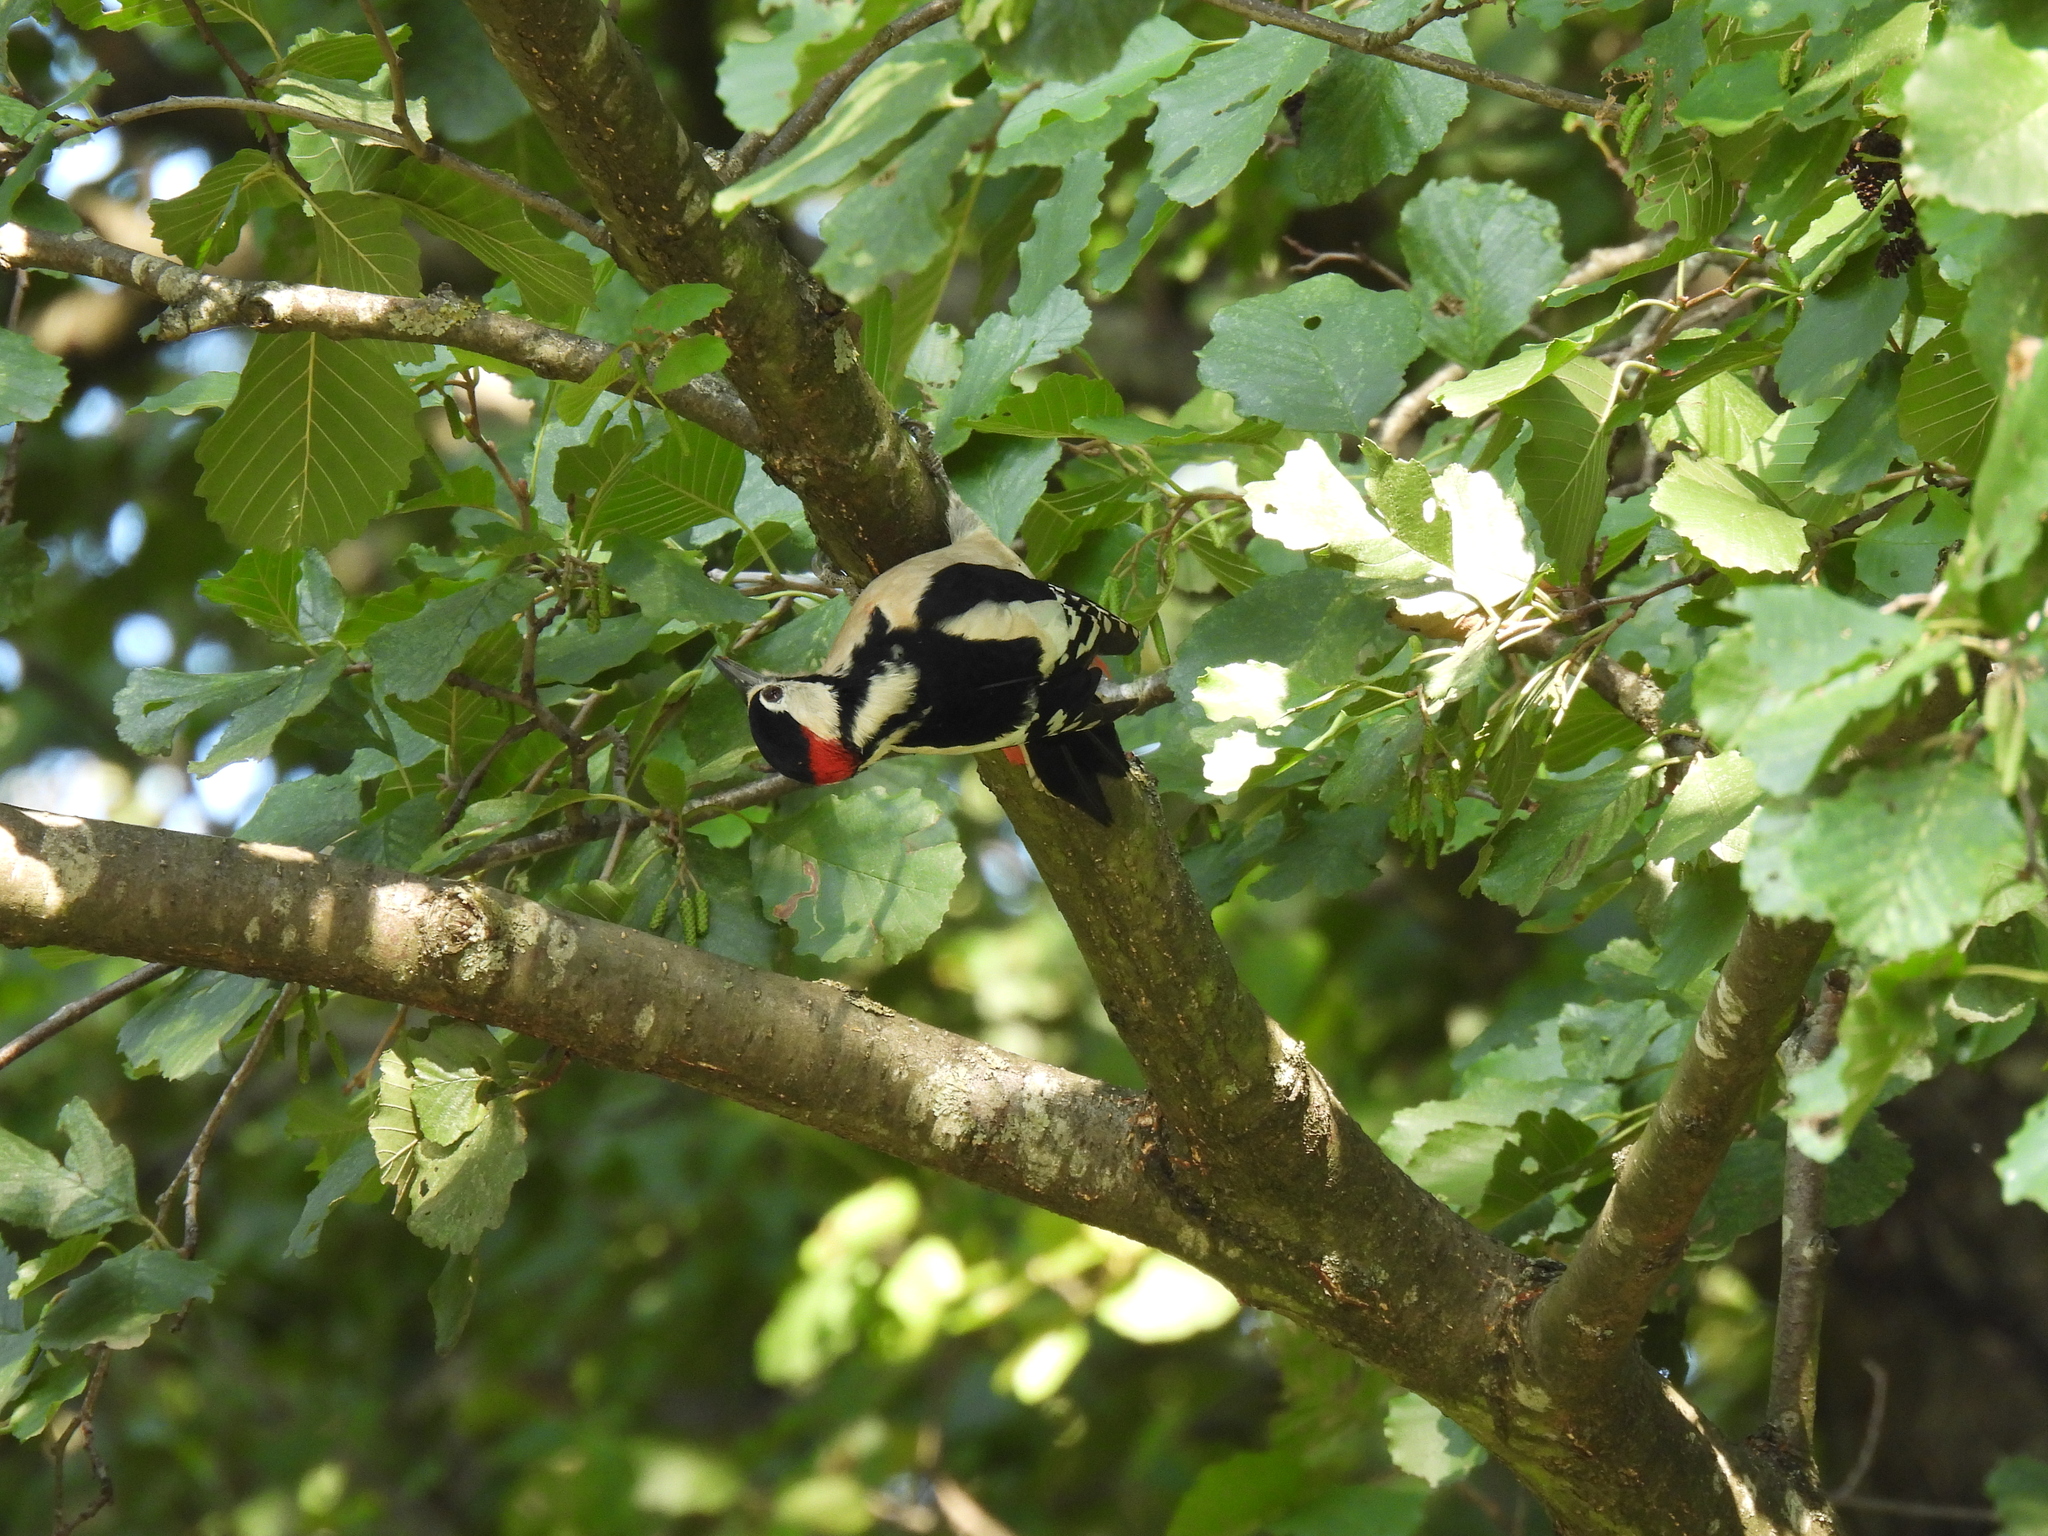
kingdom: Animalia
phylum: Chordata
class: Aves
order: Piciformes
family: Picidae
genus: Dendrocopos
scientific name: Dendrocopos major
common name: Great spotted woodpecker
